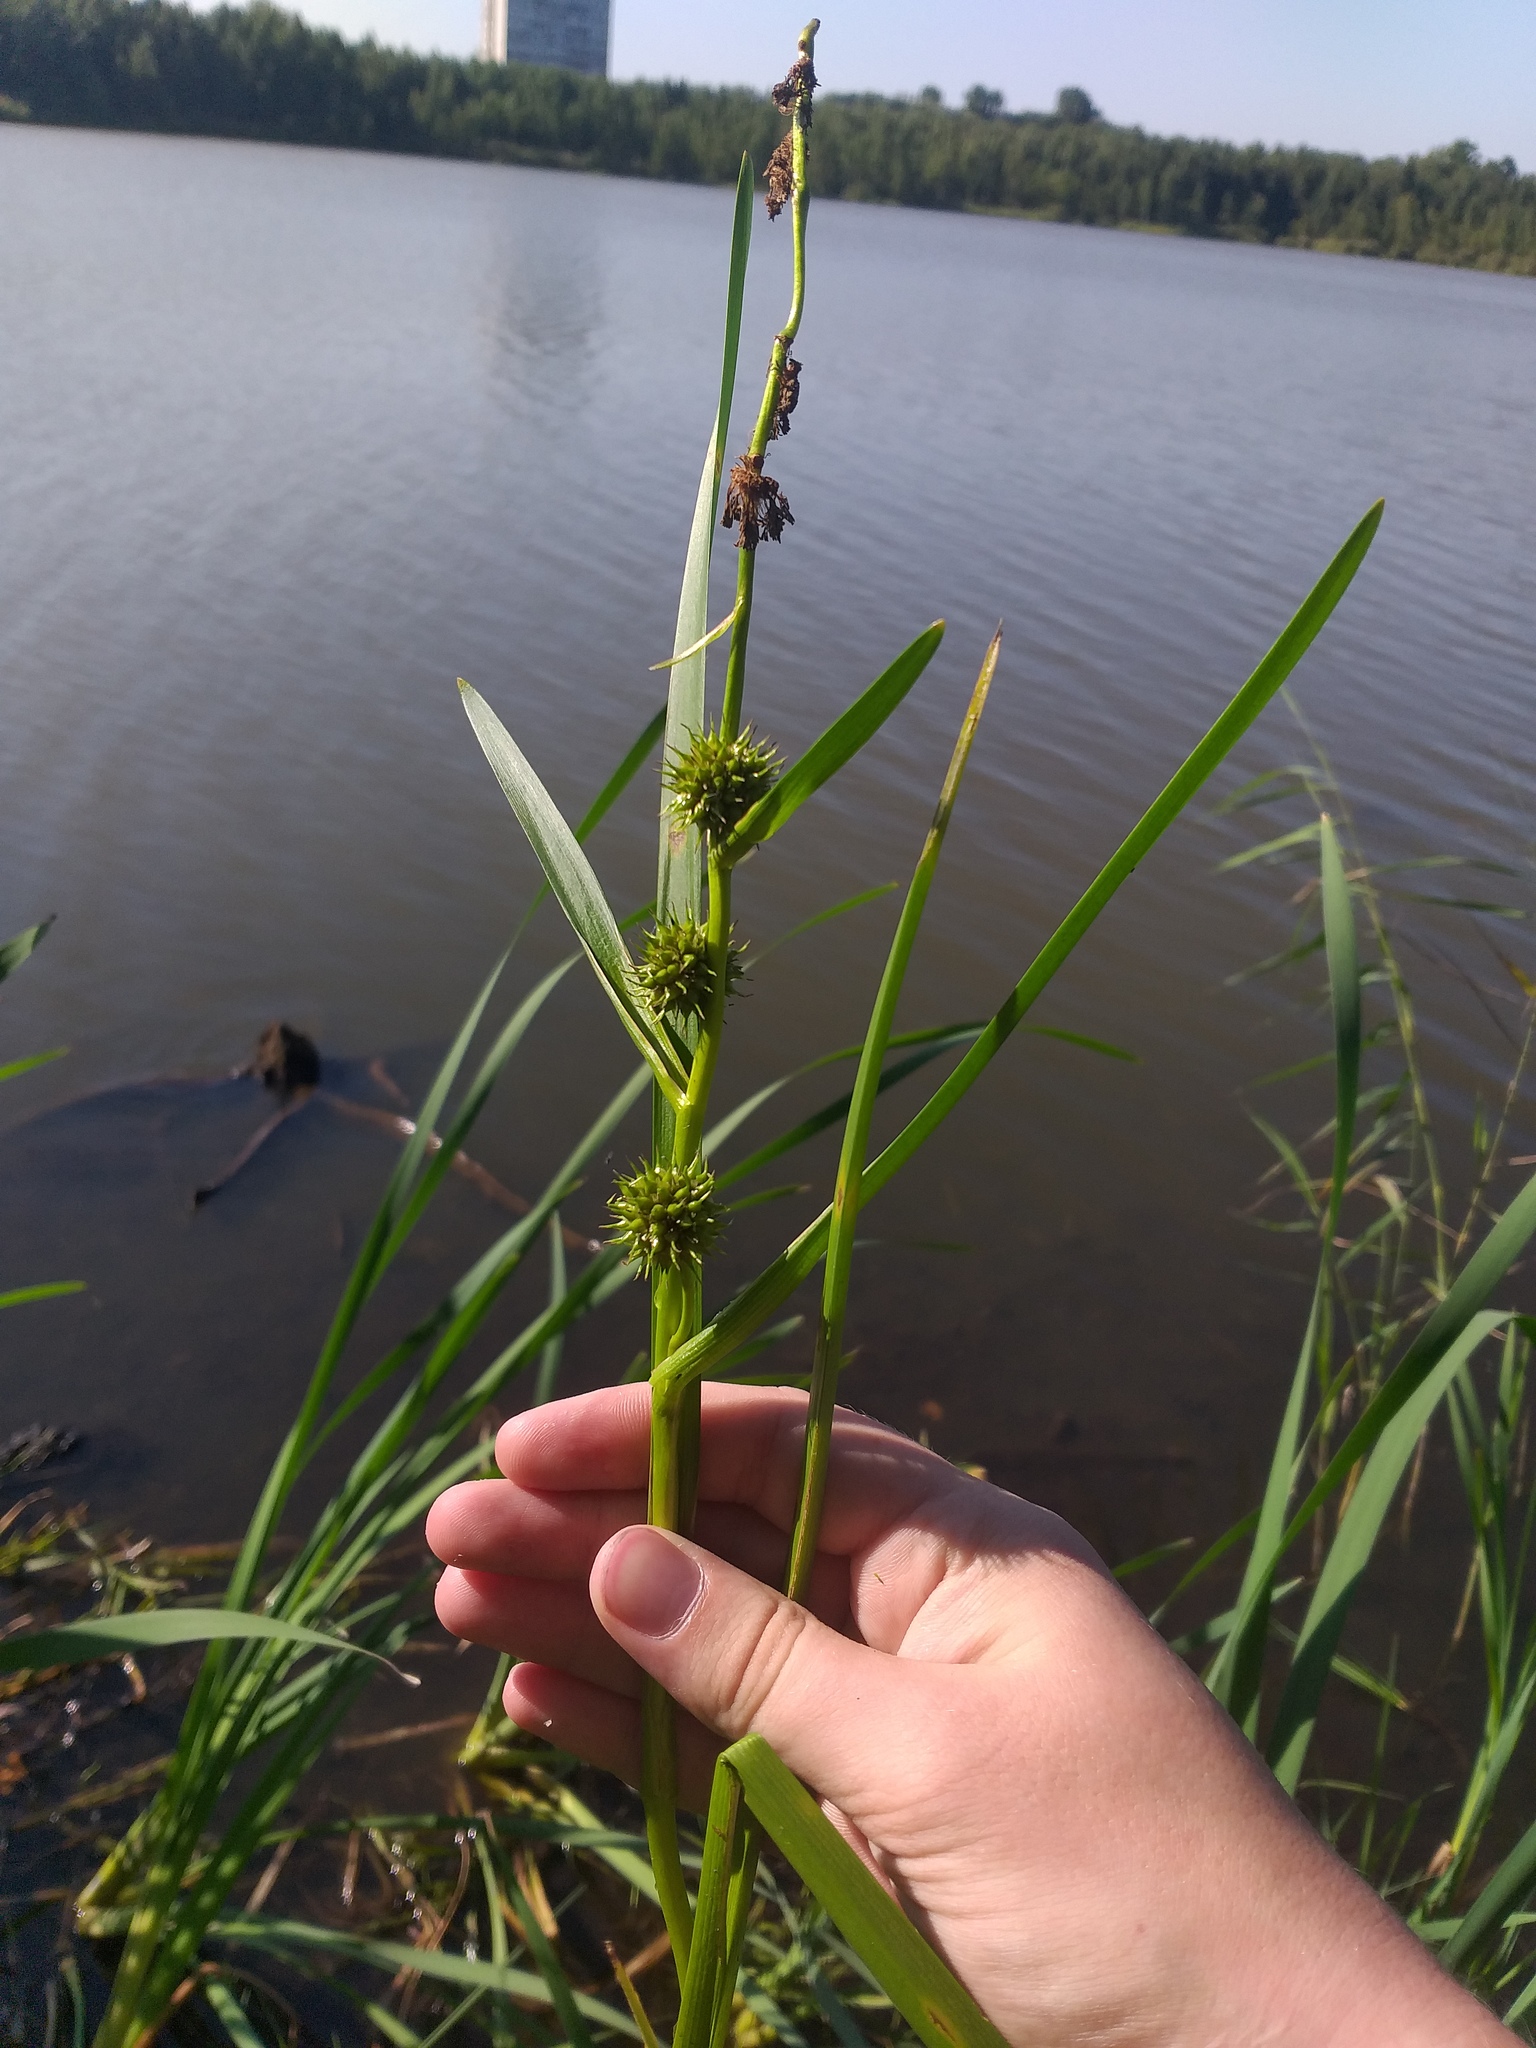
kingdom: Plantae
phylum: Tracheophyta
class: Liliopsida
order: Poales
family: Typhaceae
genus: Sparganium
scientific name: Sparganium emersum
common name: Unbranched bur-reed
